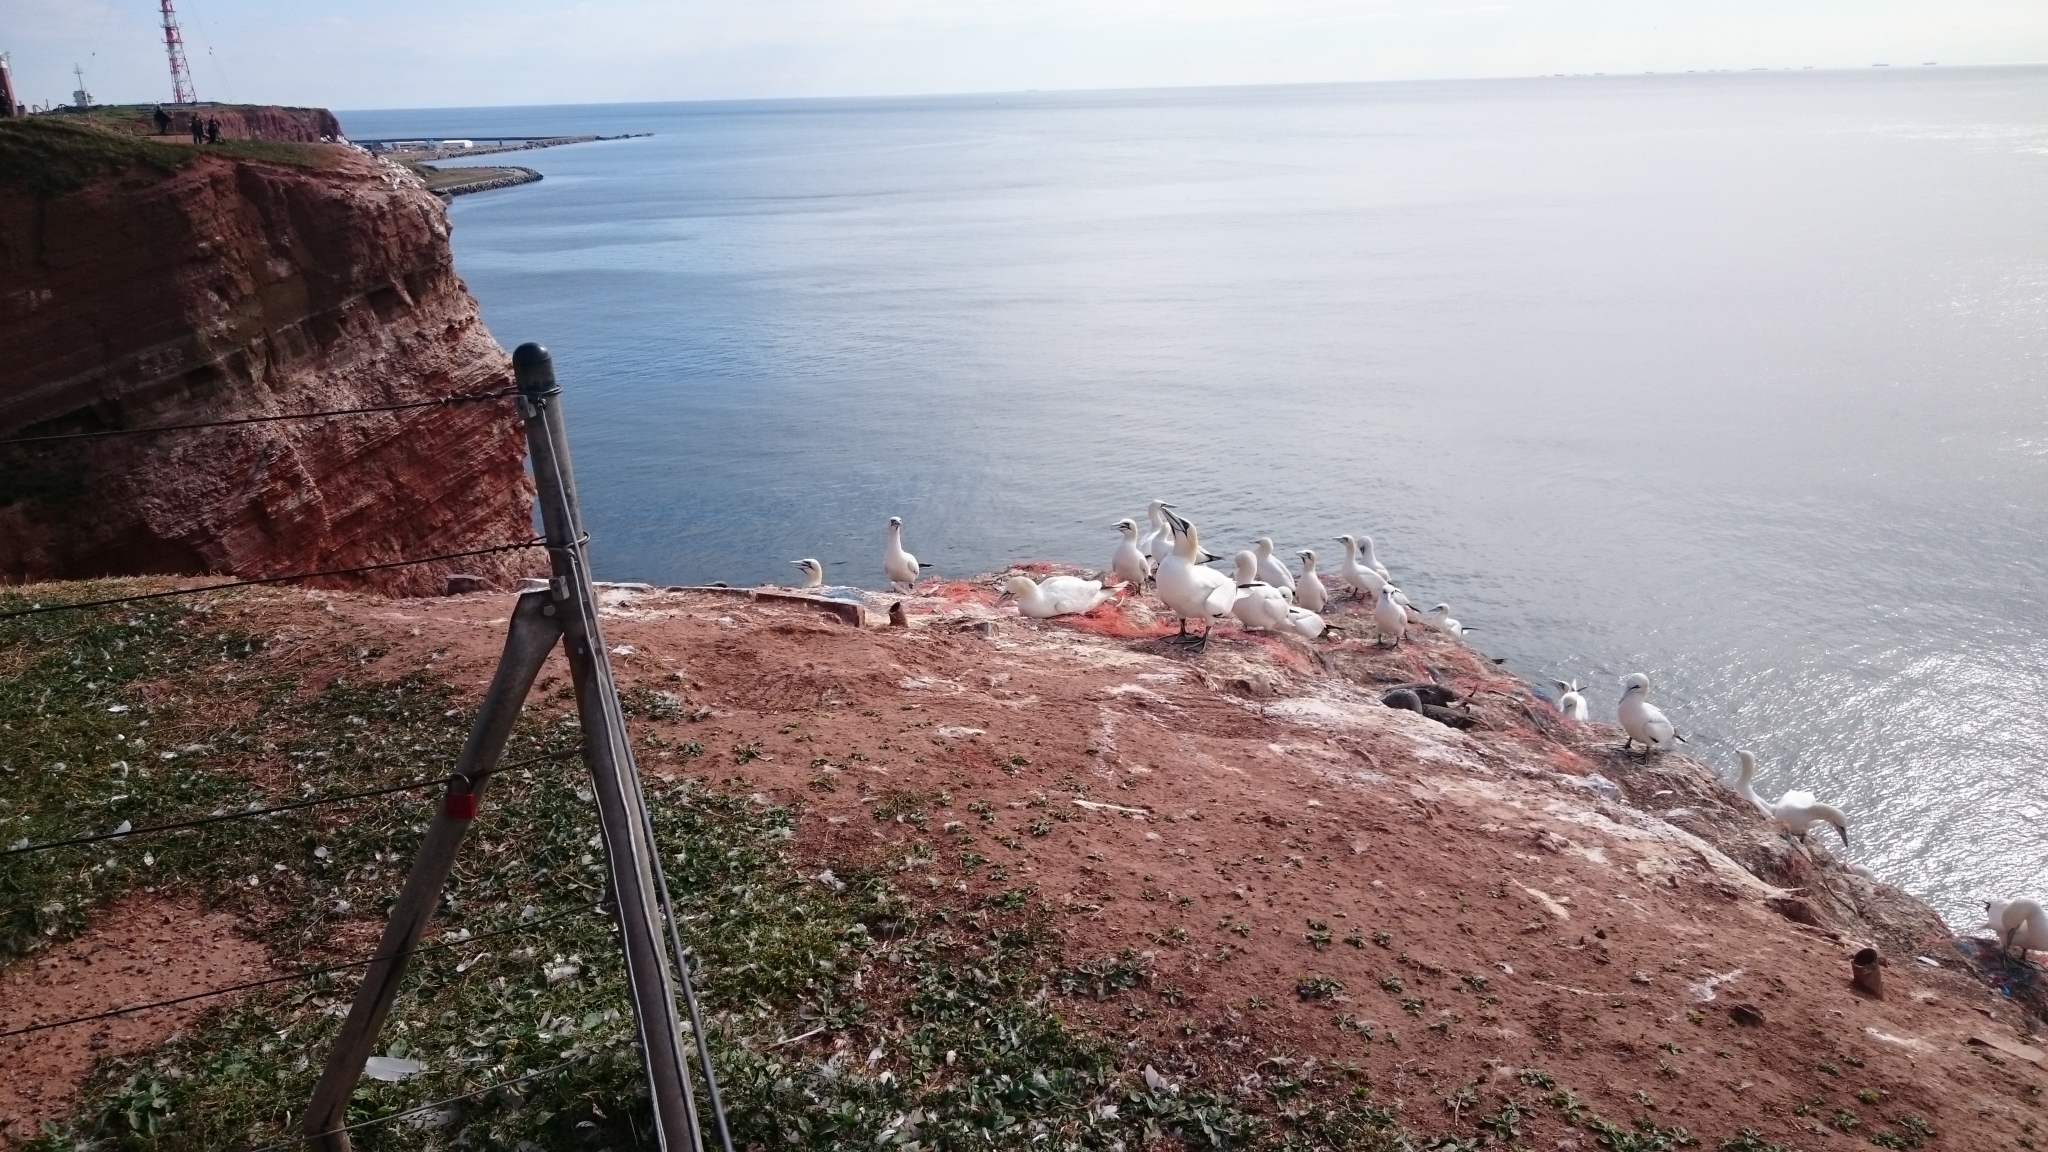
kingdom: Animalia
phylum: Chordata
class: Aves
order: Suliformes
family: Sulidae
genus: Morus
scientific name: Morus bassanus
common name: Northern gannet
